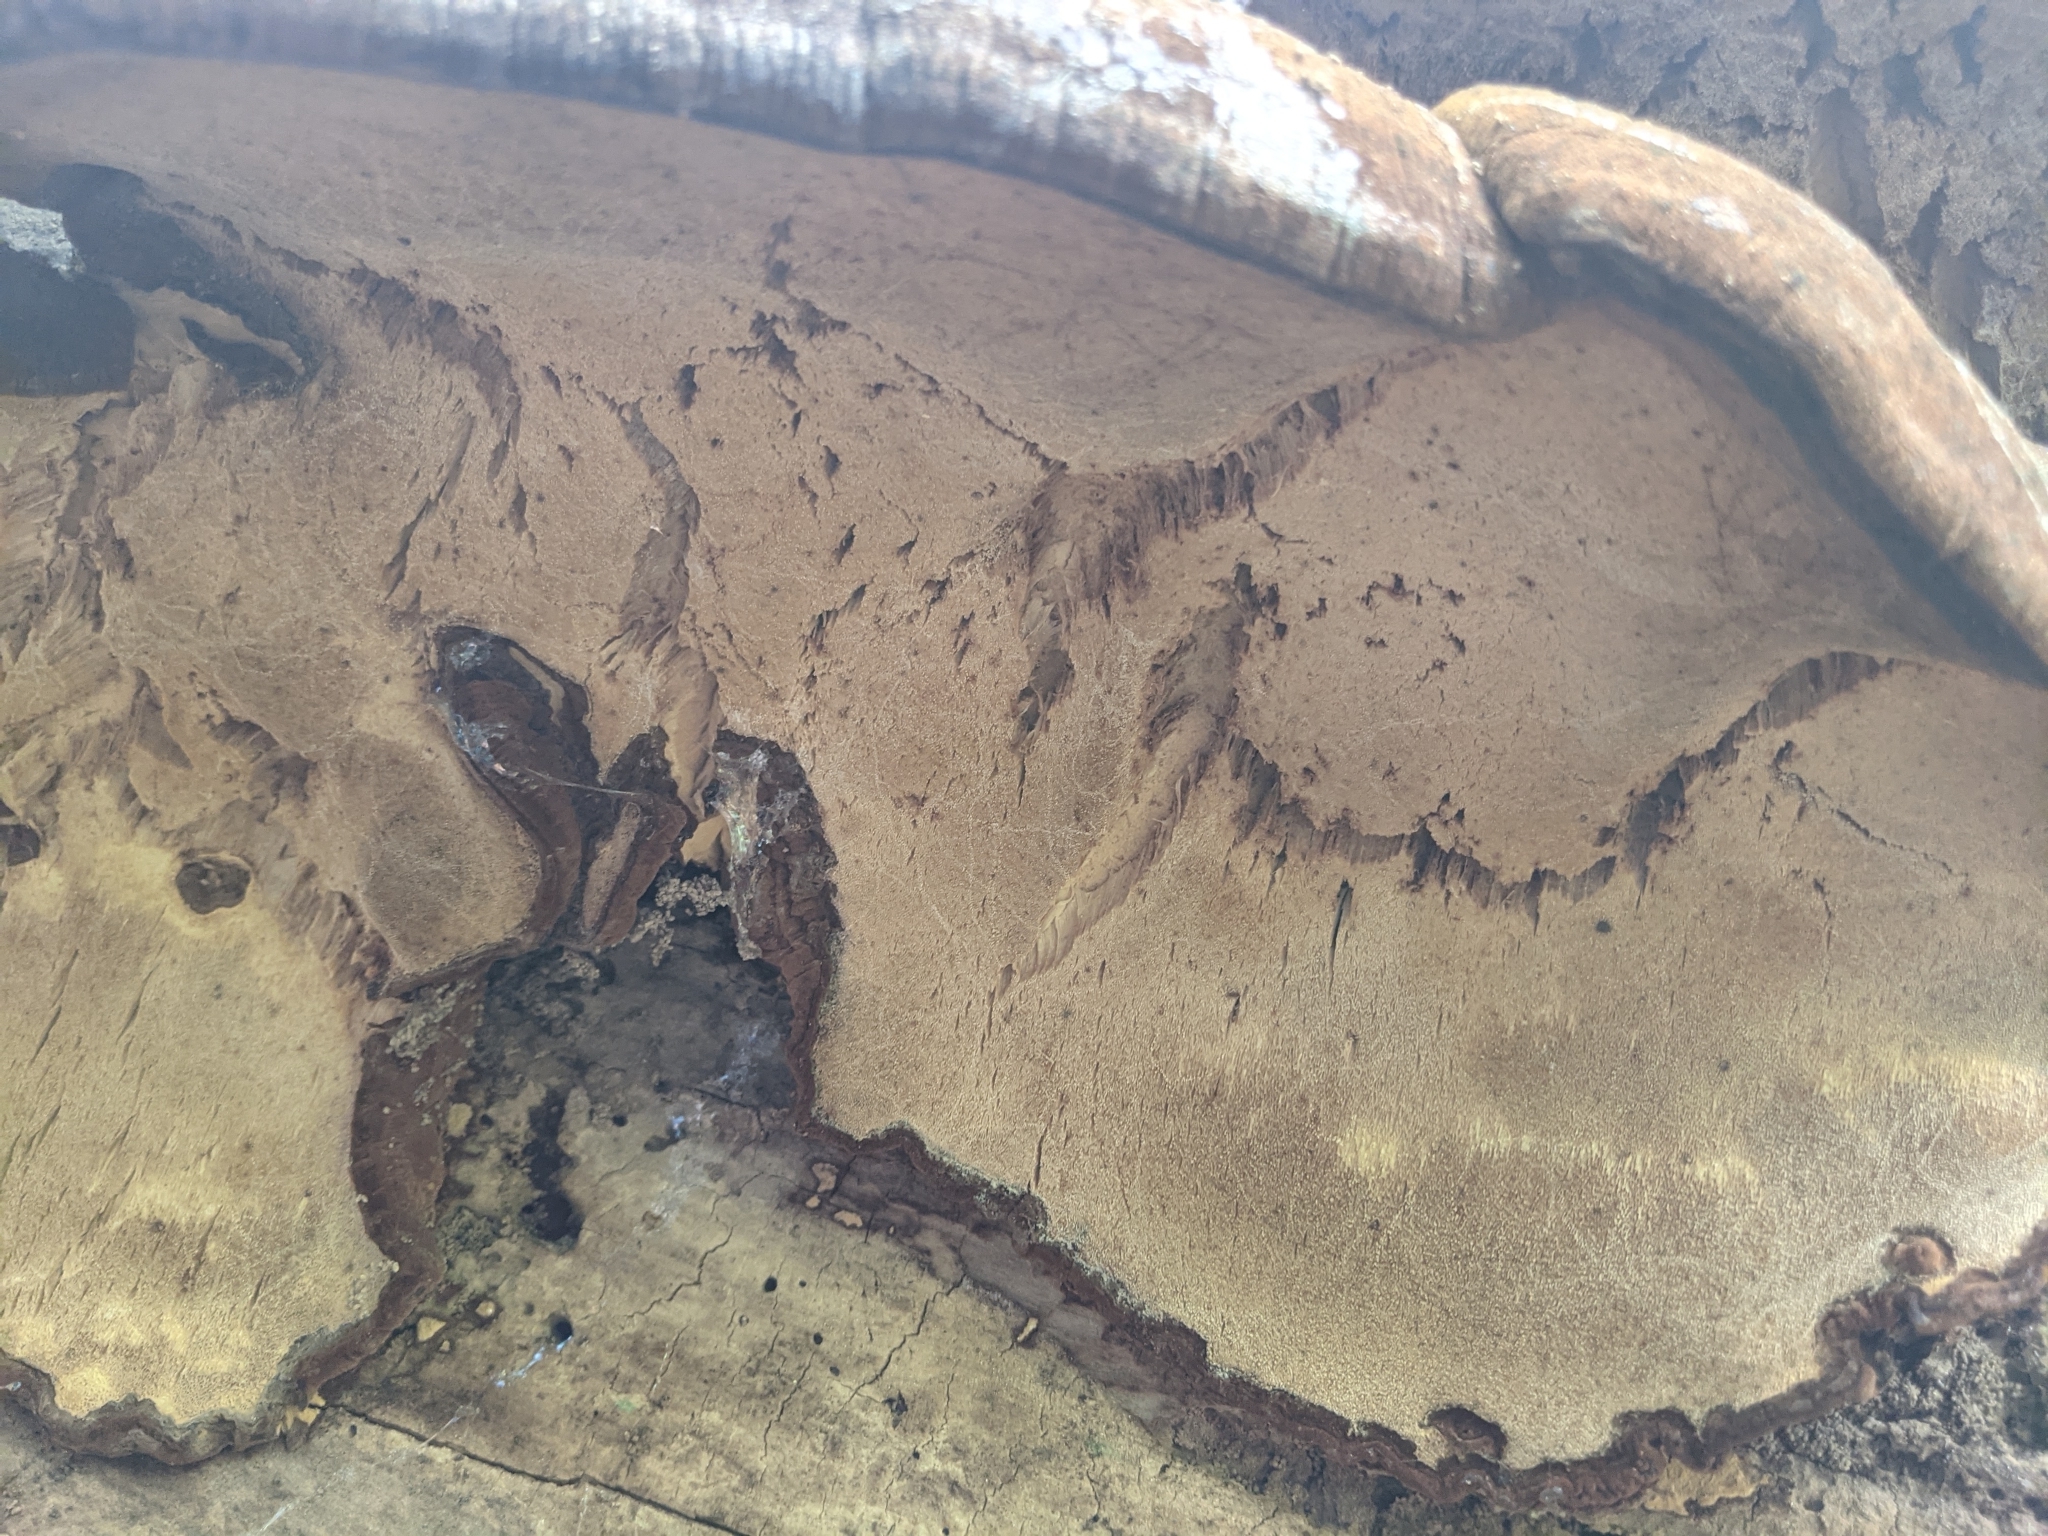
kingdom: Fungi
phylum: Basidiomycota
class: Agaricomycetes
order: Polyporales
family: Ischnodermataceae
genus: Ischnoderma
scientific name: Ischnoderma resinosum
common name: Resinous polypore
